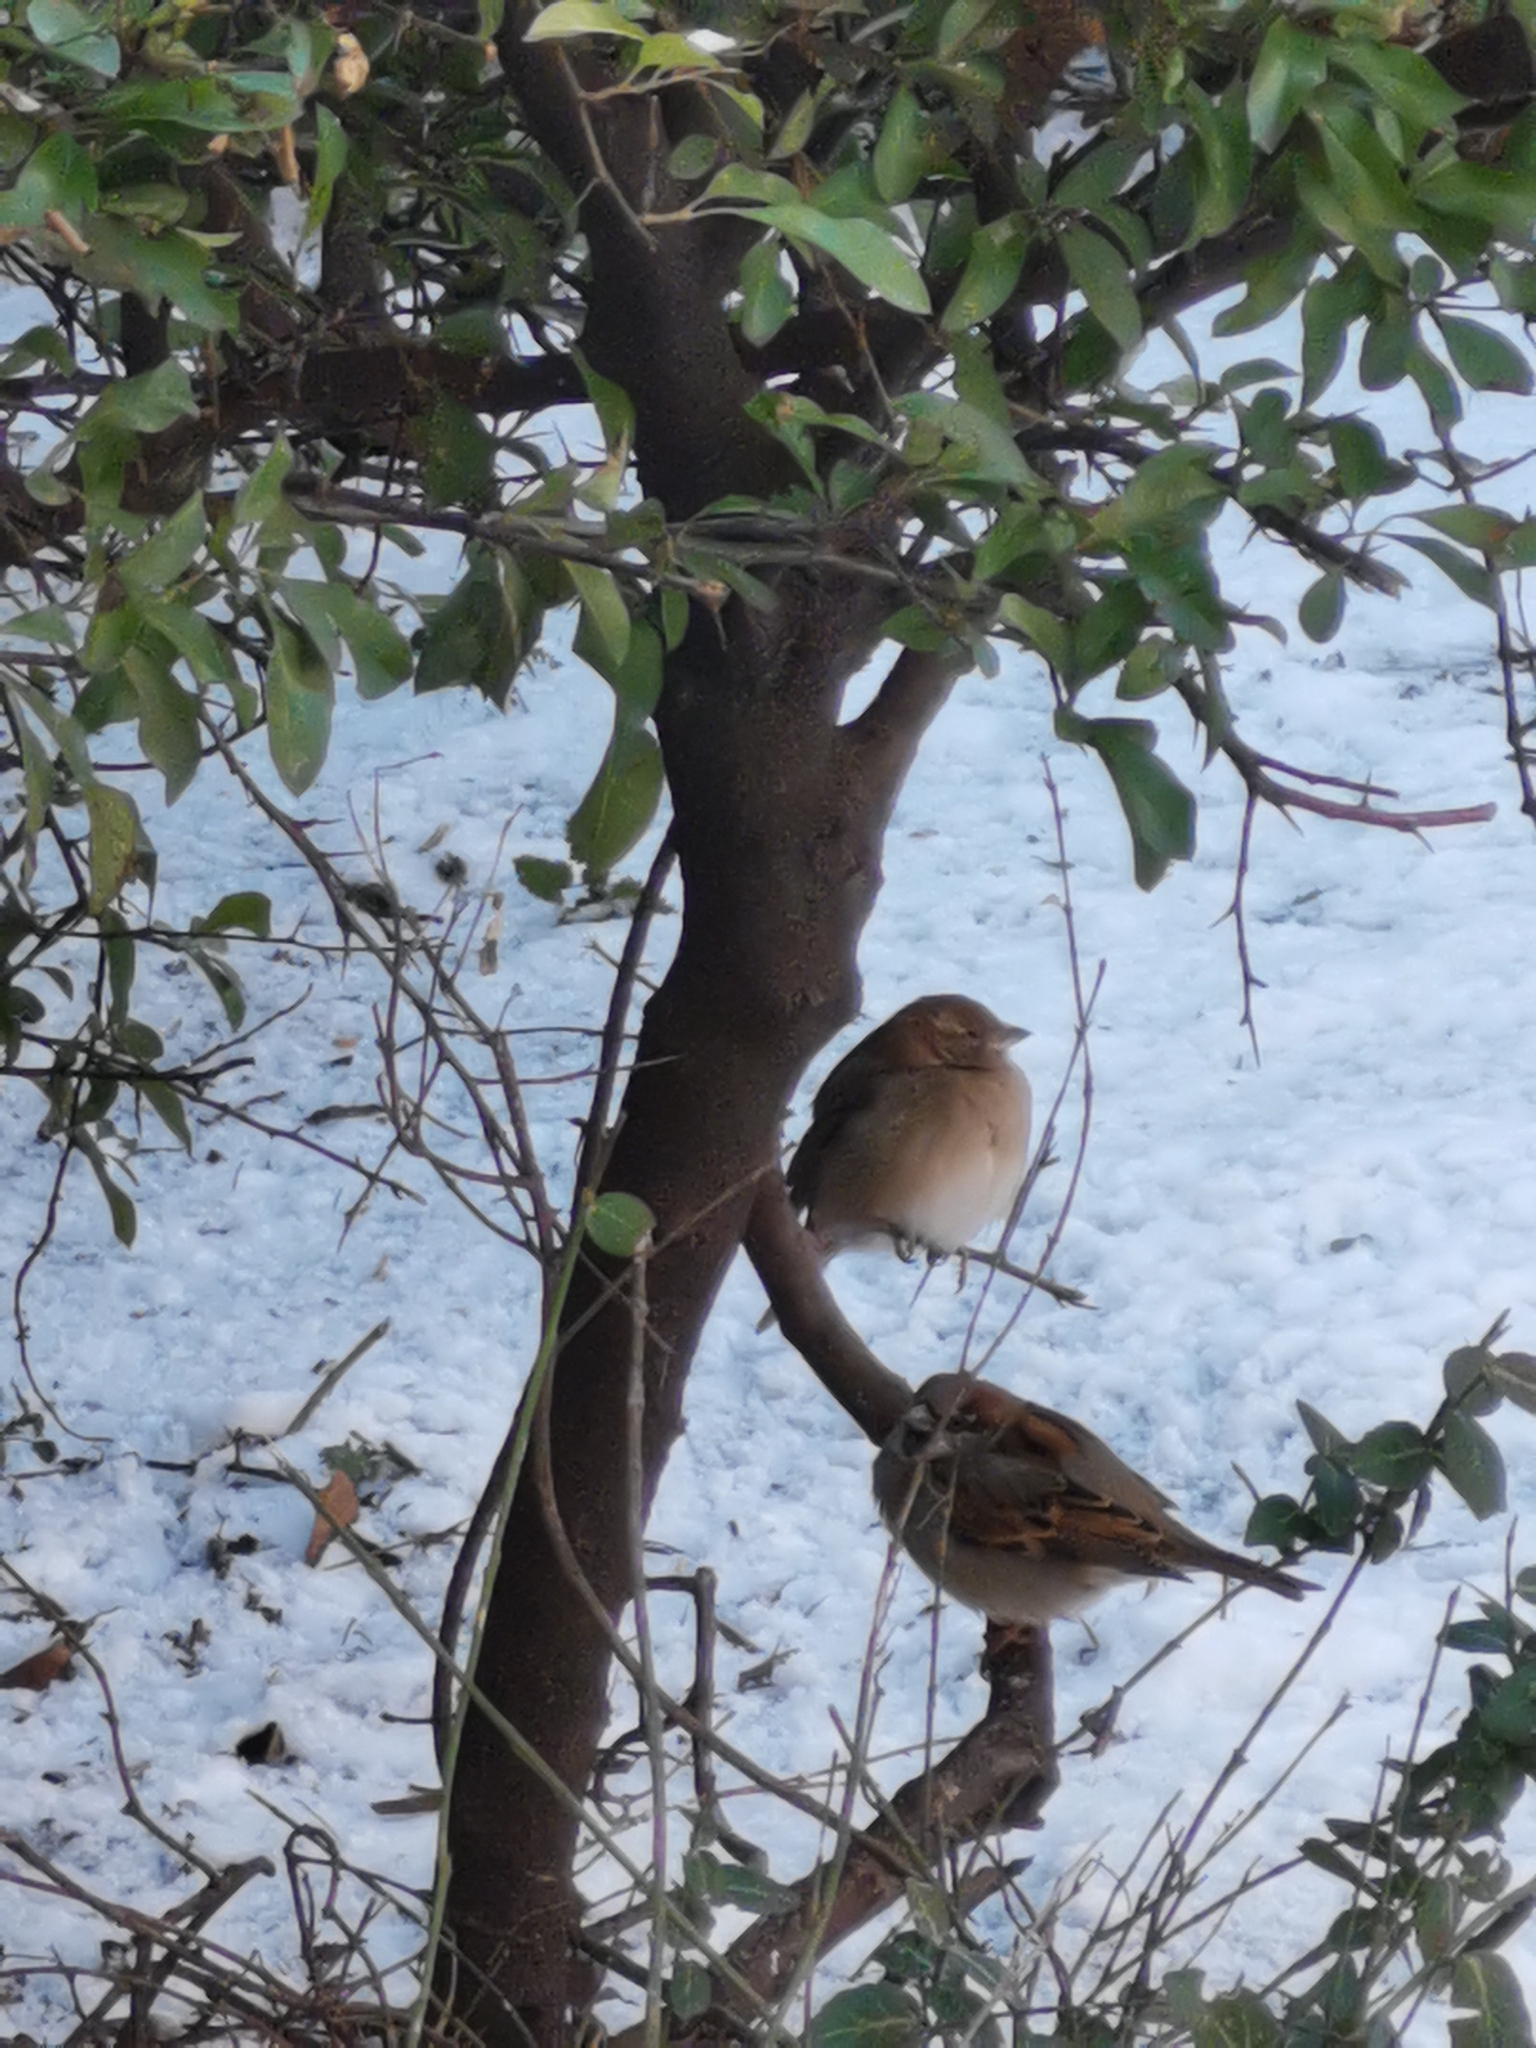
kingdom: Animalia
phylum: Chordata
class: Aves
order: Passeriformes
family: Passeridae
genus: Passer
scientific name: Passer domesticus
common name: House sparrow
